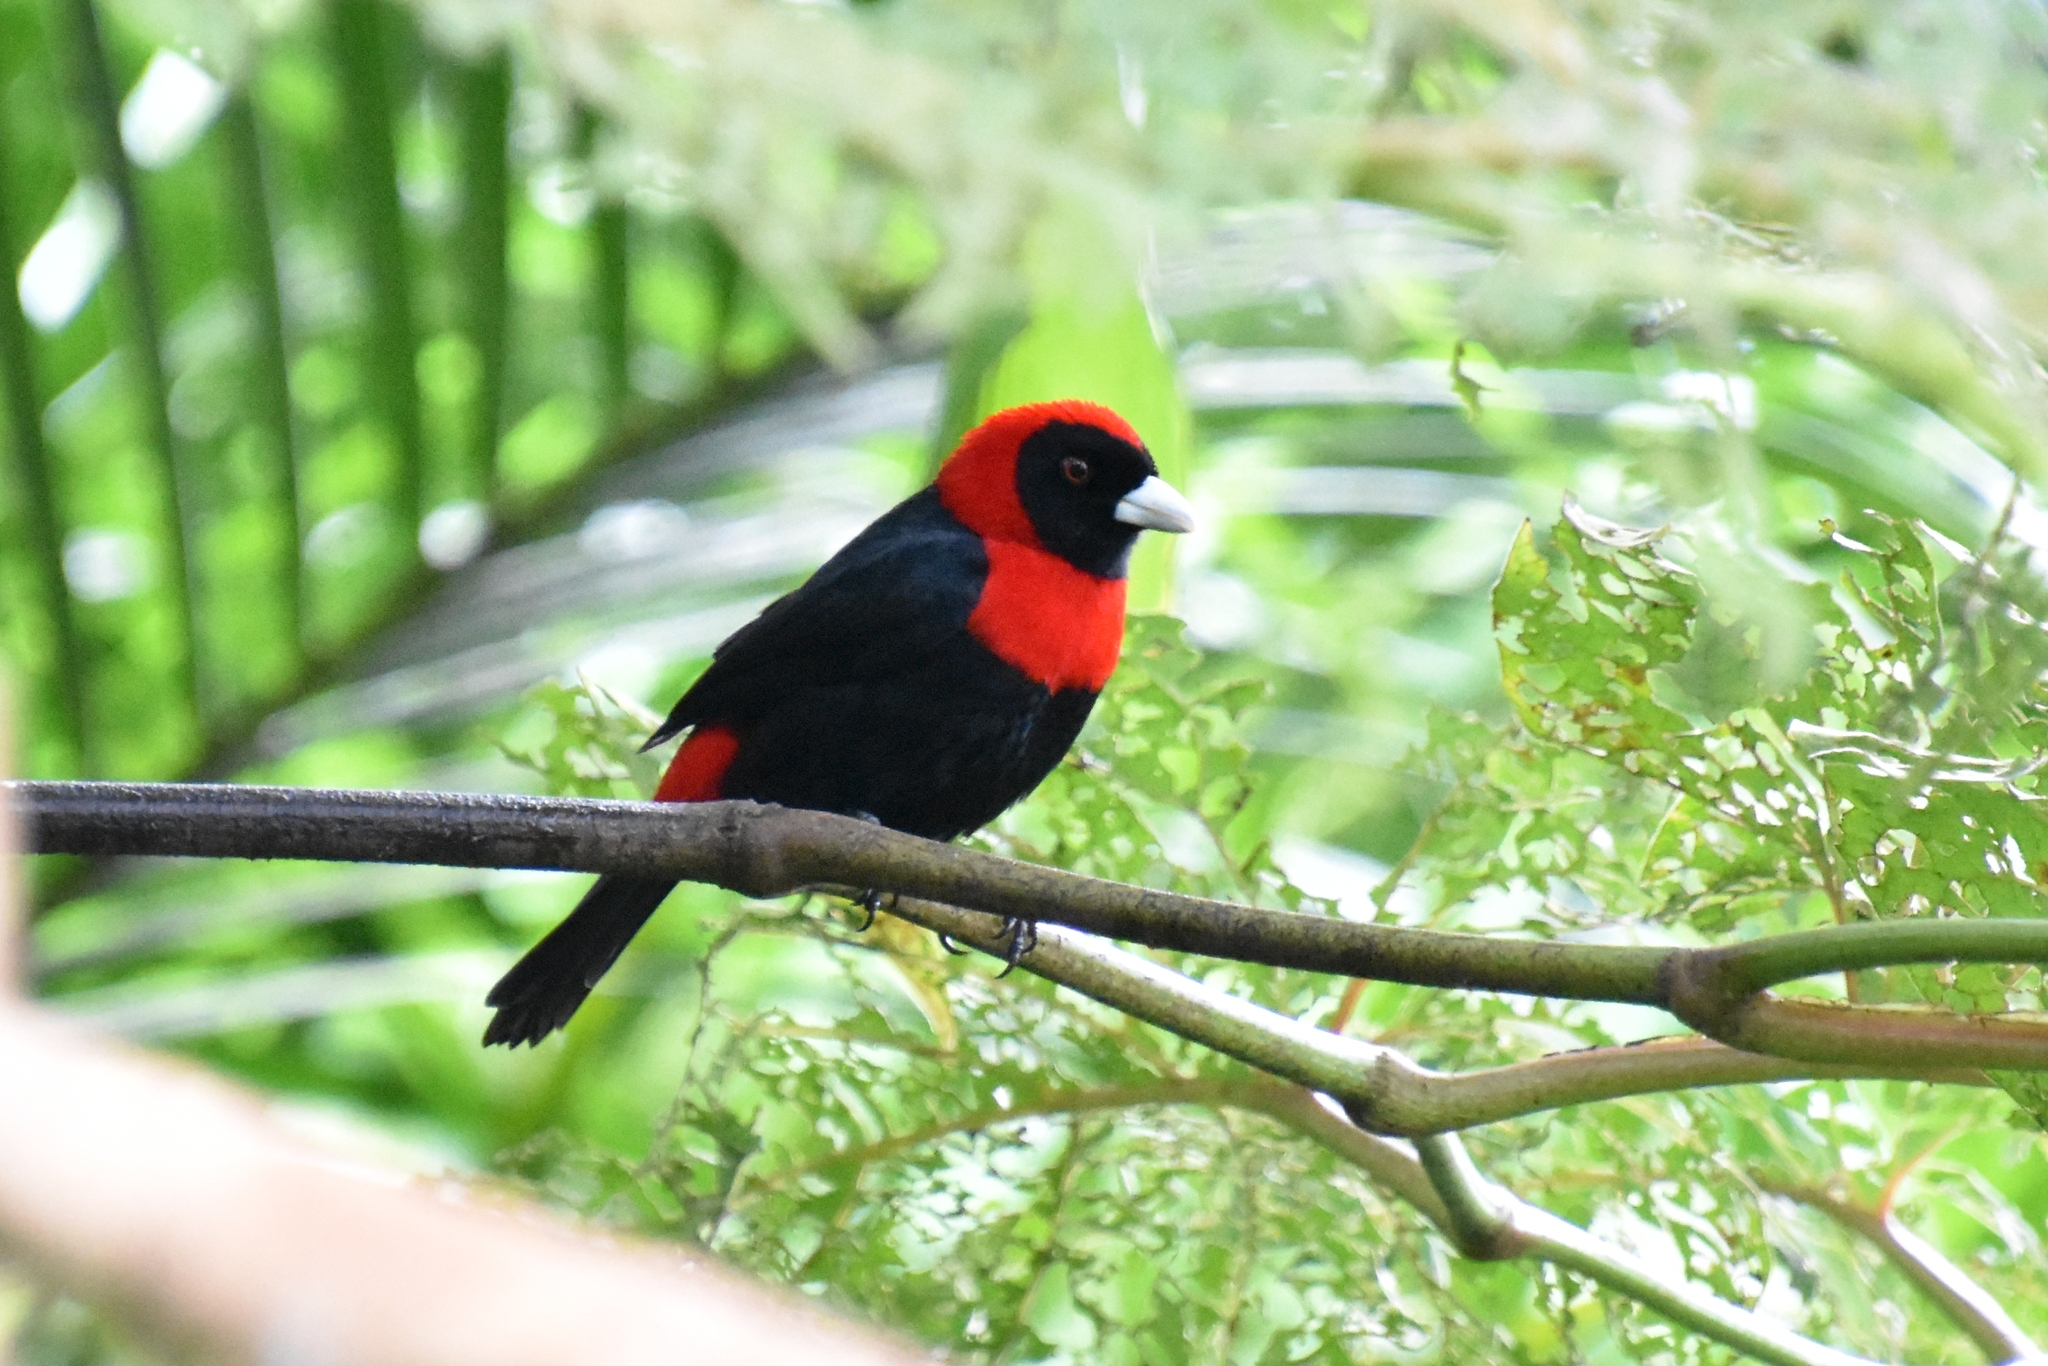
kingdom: Animalia
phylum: Chordata
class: Aves
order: Passeriformes
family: Thraupidae
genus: Ramphocelus
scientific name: Ramphocelus sanguinolentus
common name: Crimson-collared tanager
